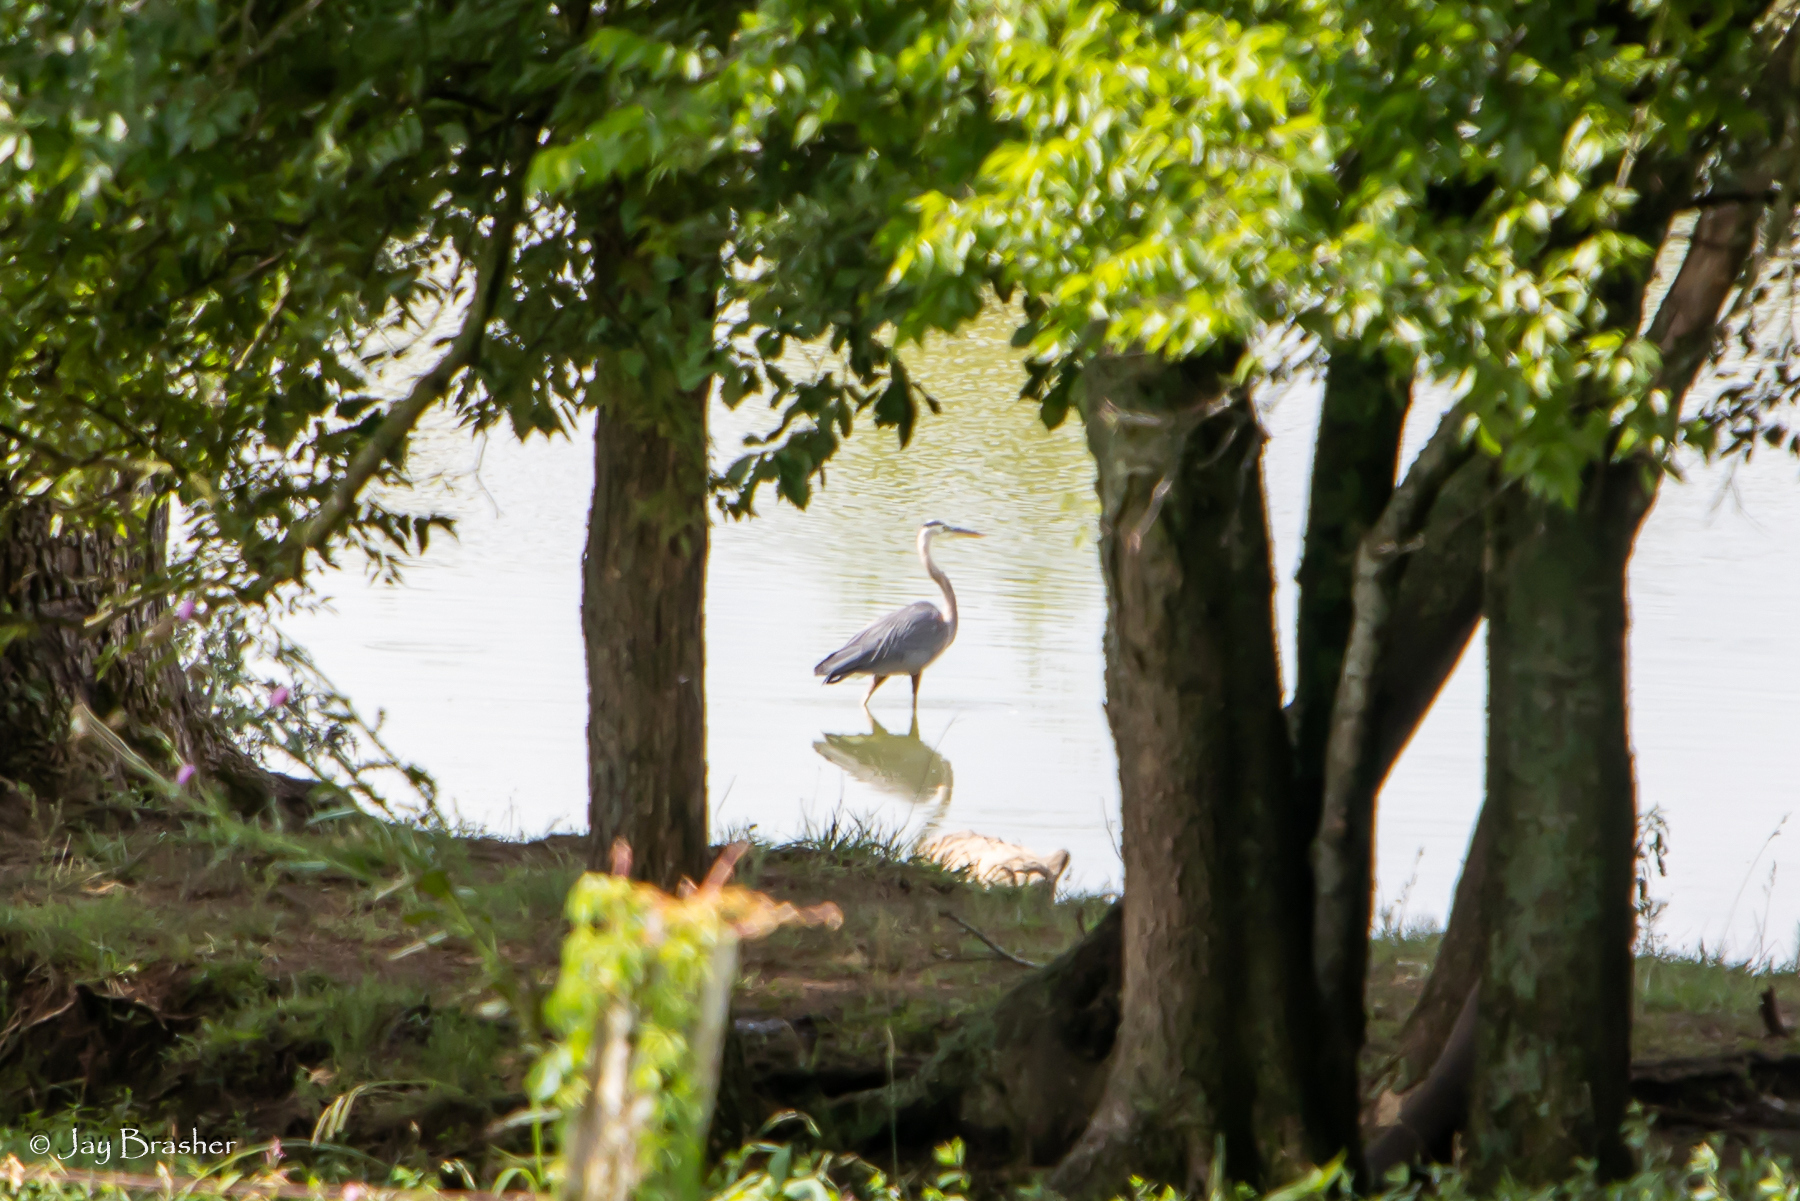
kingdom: Animalia
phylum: Chordata
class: Aves
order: Pelecaniformes
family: Ardeidae
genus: Ardea
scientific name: Ardea herodias
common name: Great blue heron
